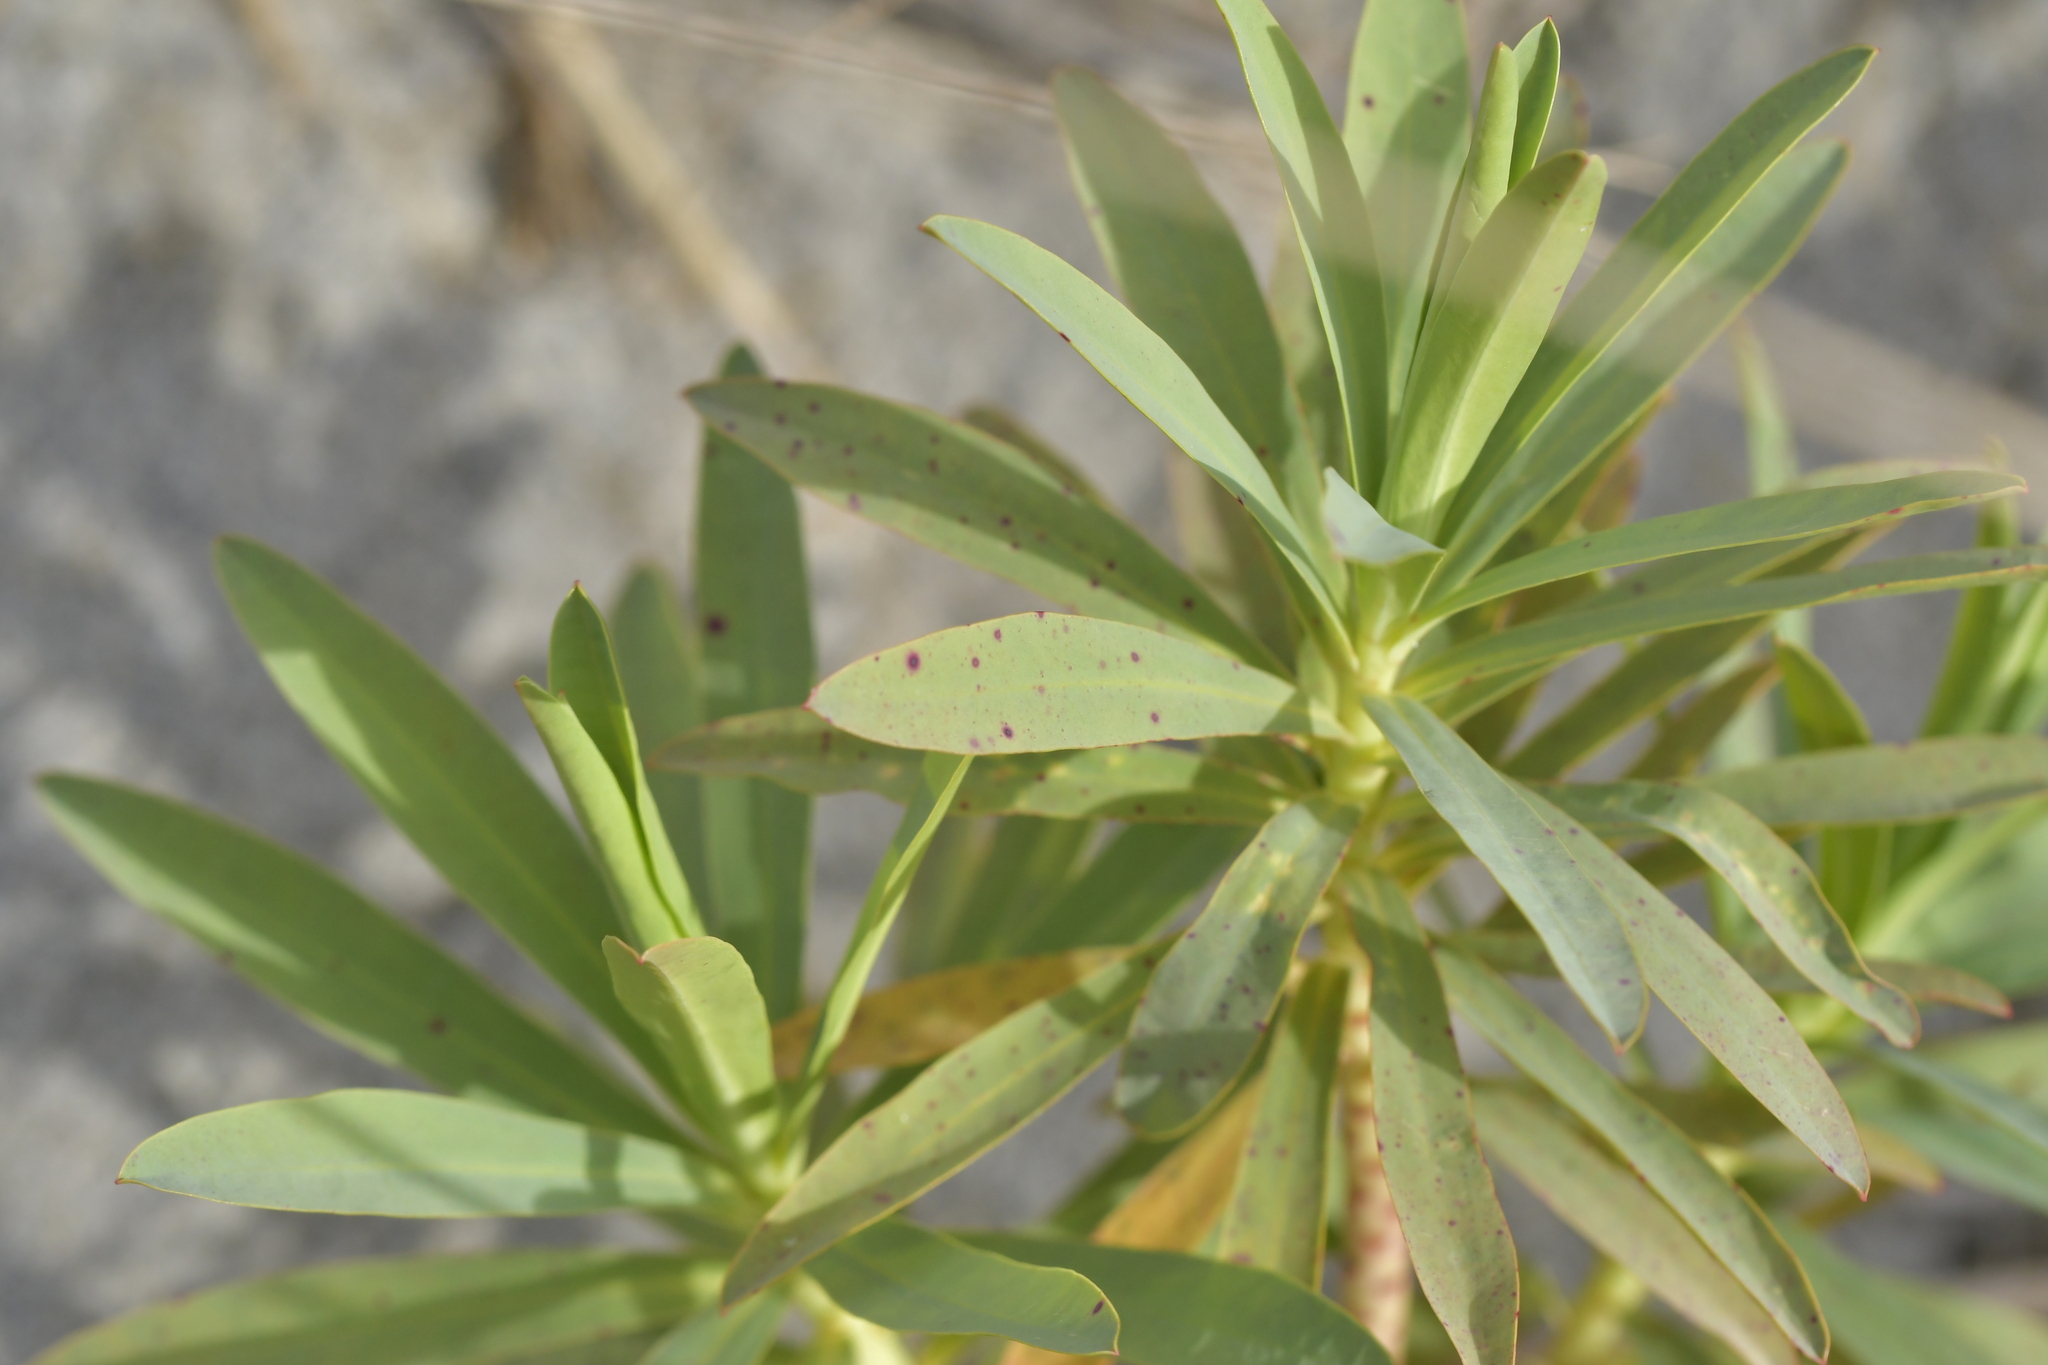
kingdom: Plantae
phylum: Tracheophyta
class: Magnoliopsida
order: Malpighiales
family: Euphorbiaceae
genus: Euphorbia
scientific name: Euphorbia glauca
